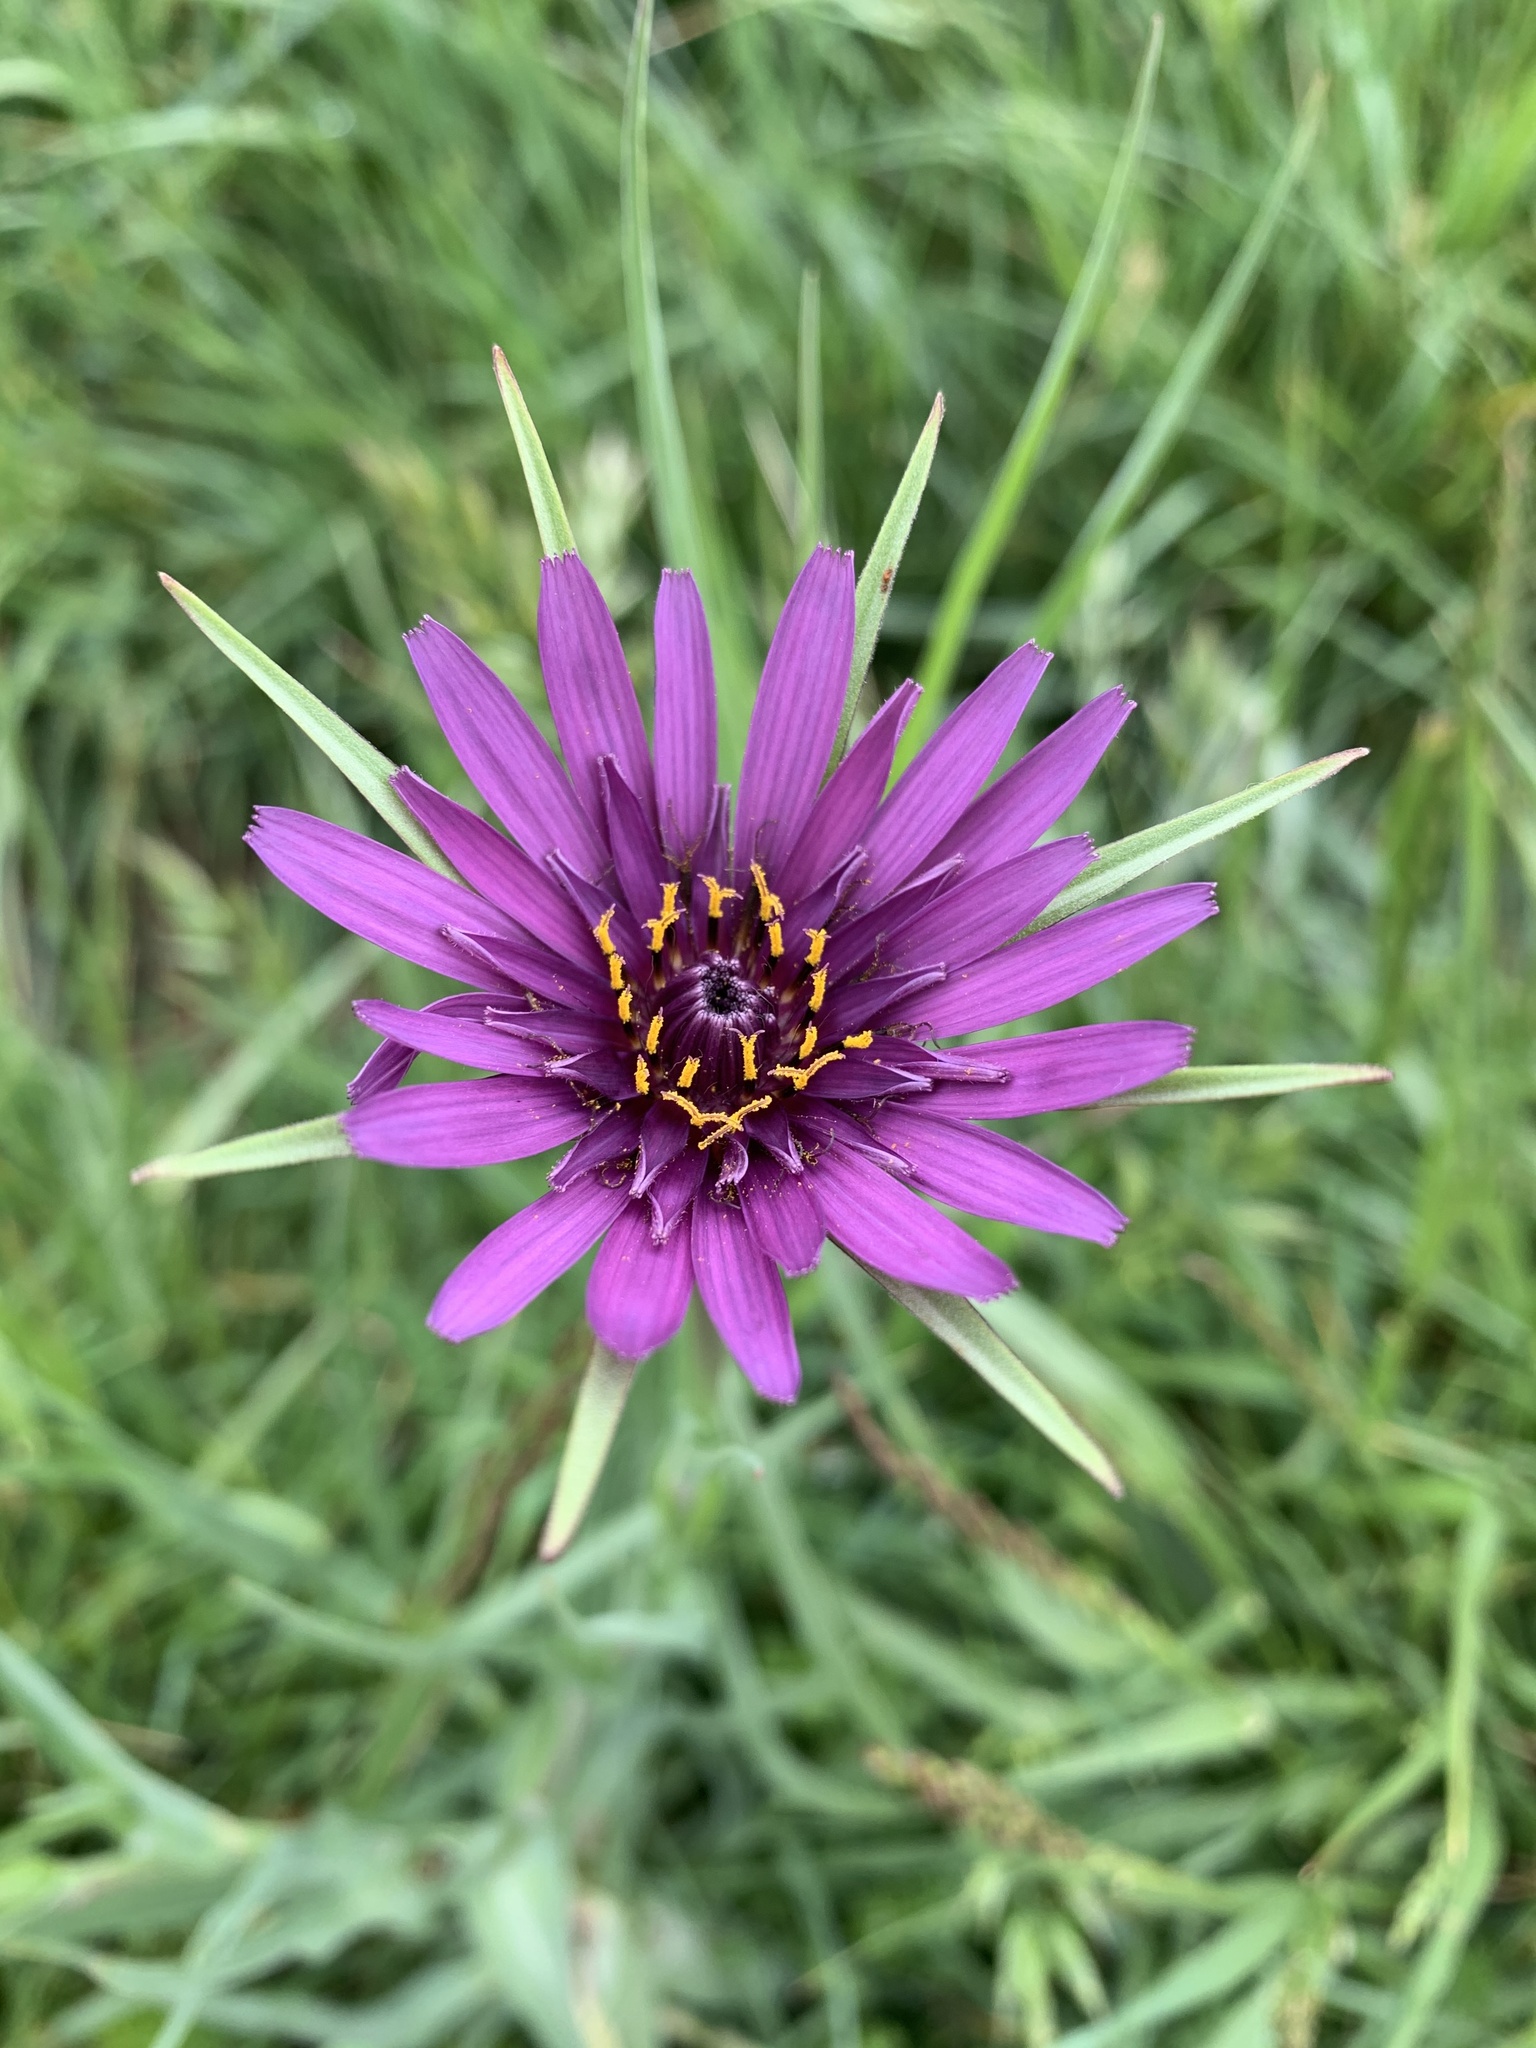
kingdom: Plantae
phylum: Tracheophyta
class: Magnoliopsida
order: Asterales
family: Asteraceae
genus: Tragopogon
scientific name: Tragopogon porrifolius
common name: Salsify
